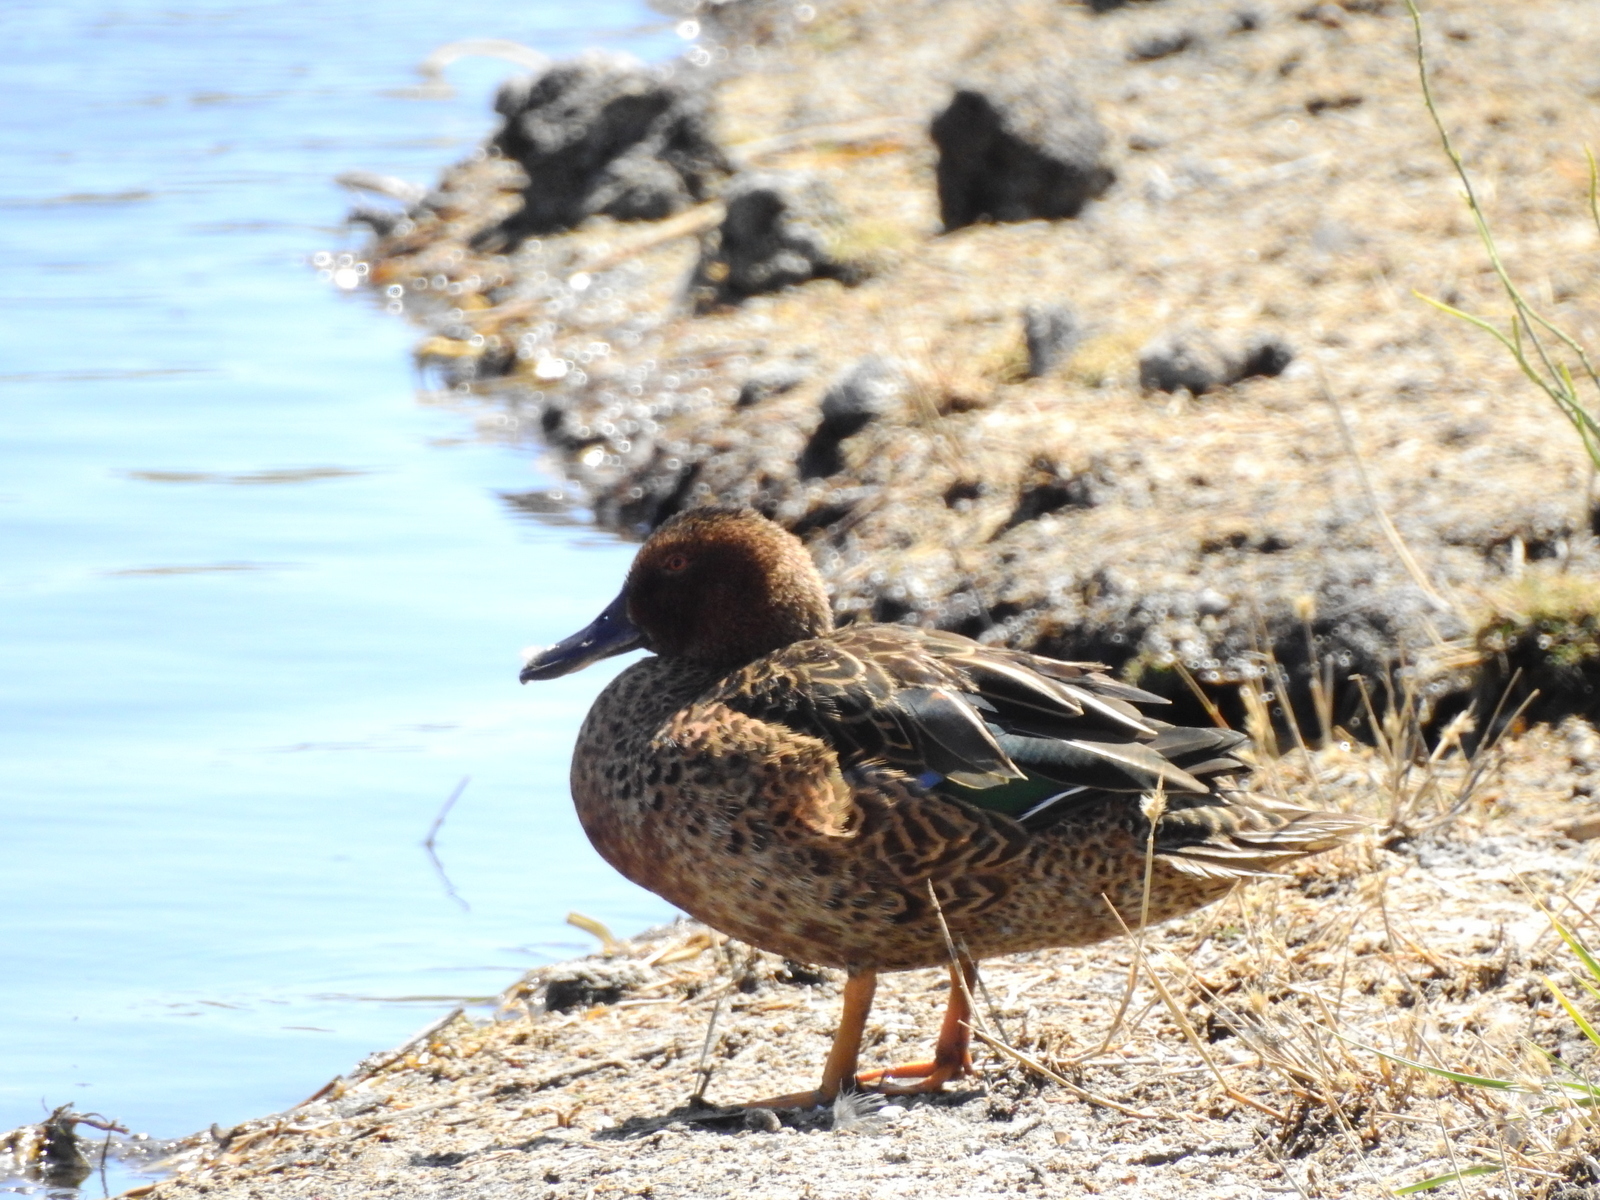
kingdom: Animalia
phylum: Chordata
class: Aves
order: Anseriformes
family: Anatidae
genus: Spatula
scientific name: Spatula platalea
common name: Red shoveler
